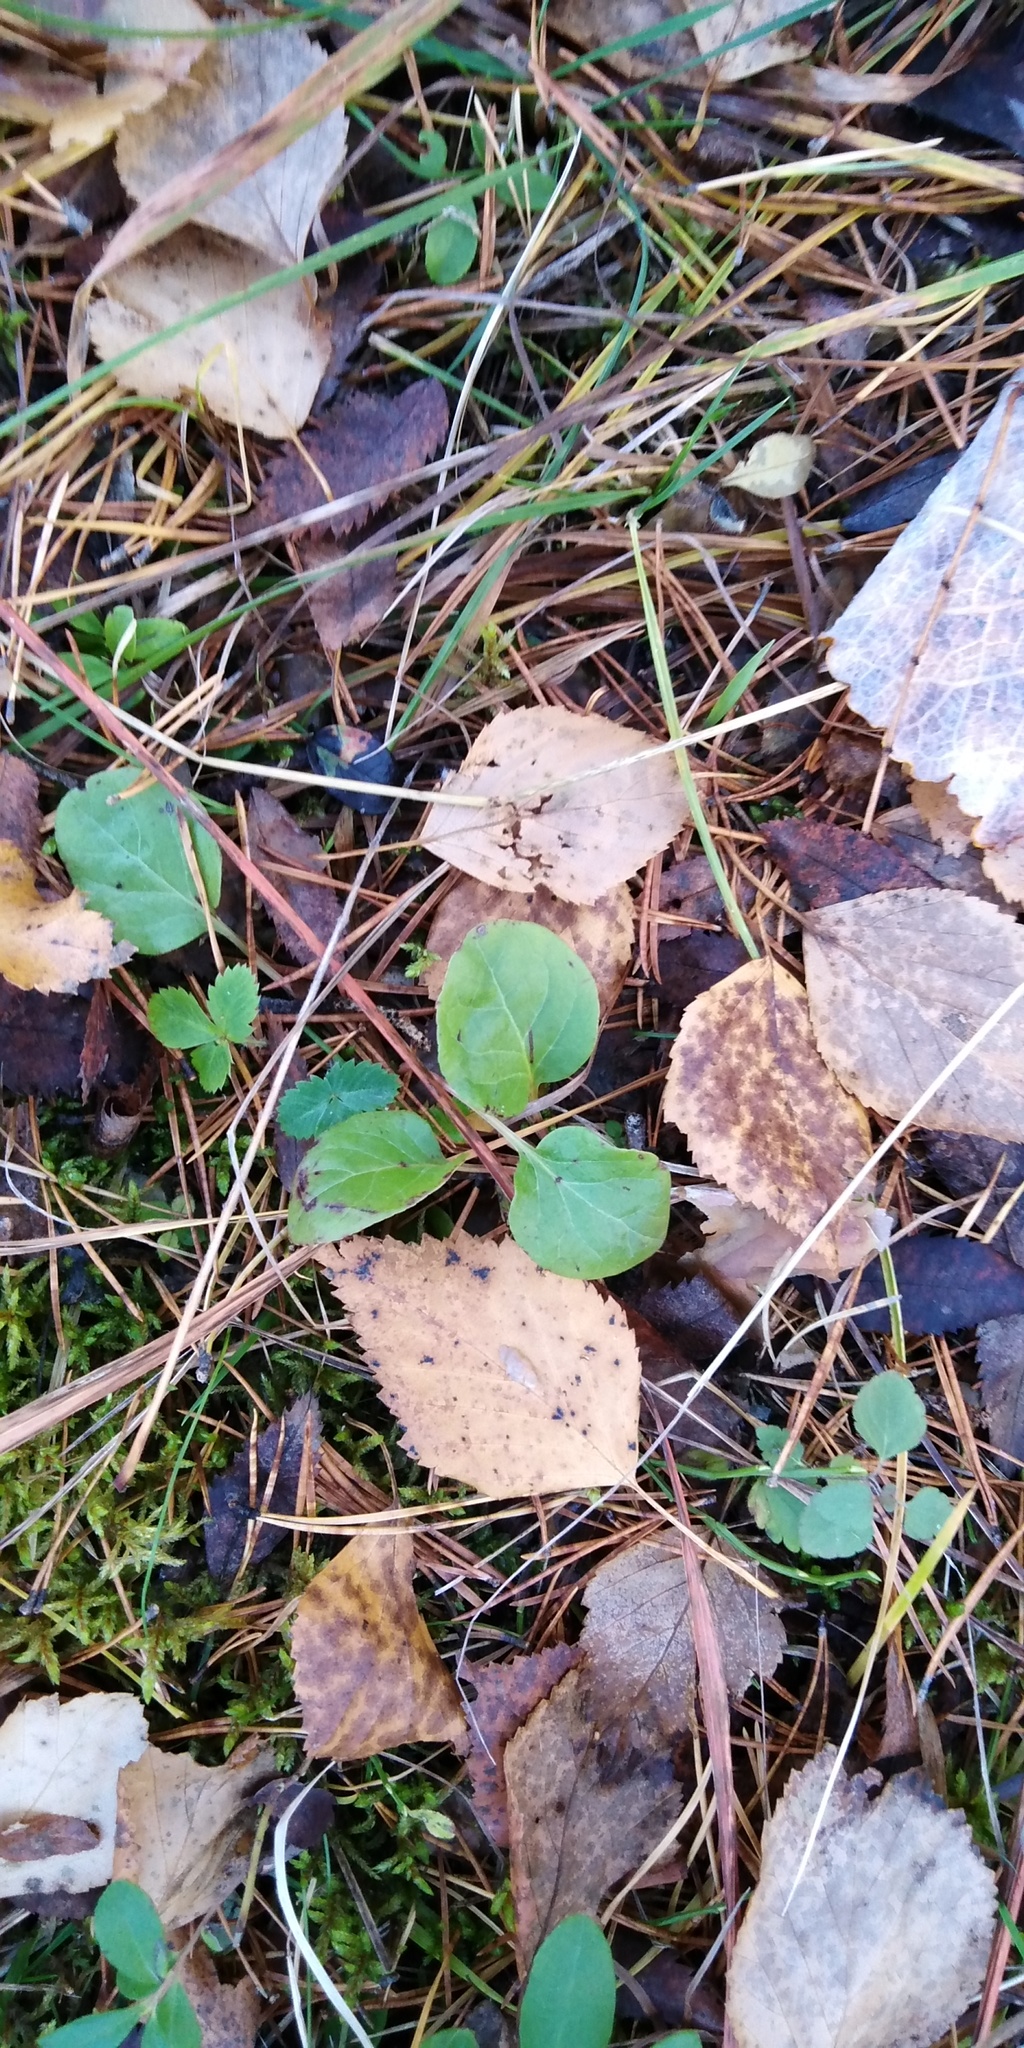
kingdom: Plantae
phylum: Tracheophyta
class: Magnoliopsida
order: Ericales
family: Ericaceae
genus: Pyrola
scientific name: Pyrola
